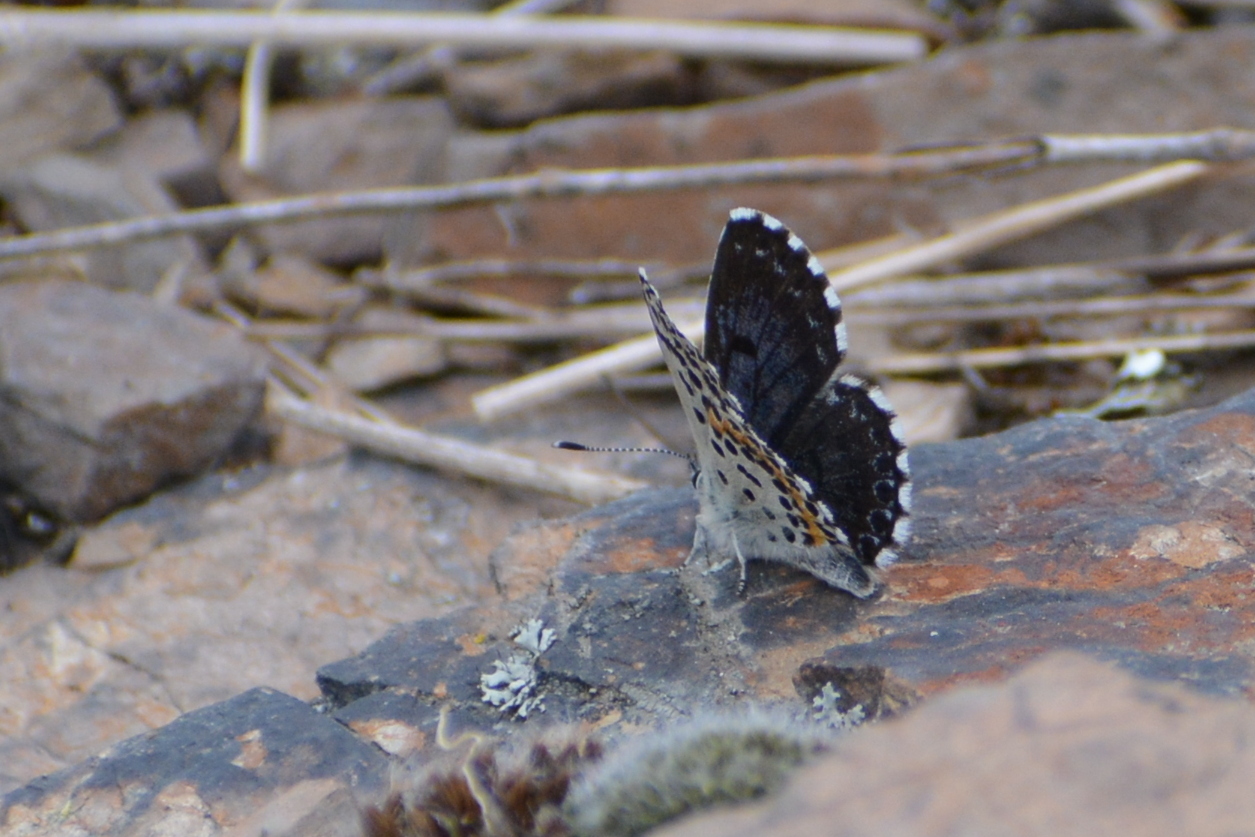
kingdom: Animalia
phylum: Arthropoda
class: Insecta
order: Lepidoptera
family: Lycaenidae
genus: Scolitantides
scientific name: Scolitantides orion
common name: Chequered blue
